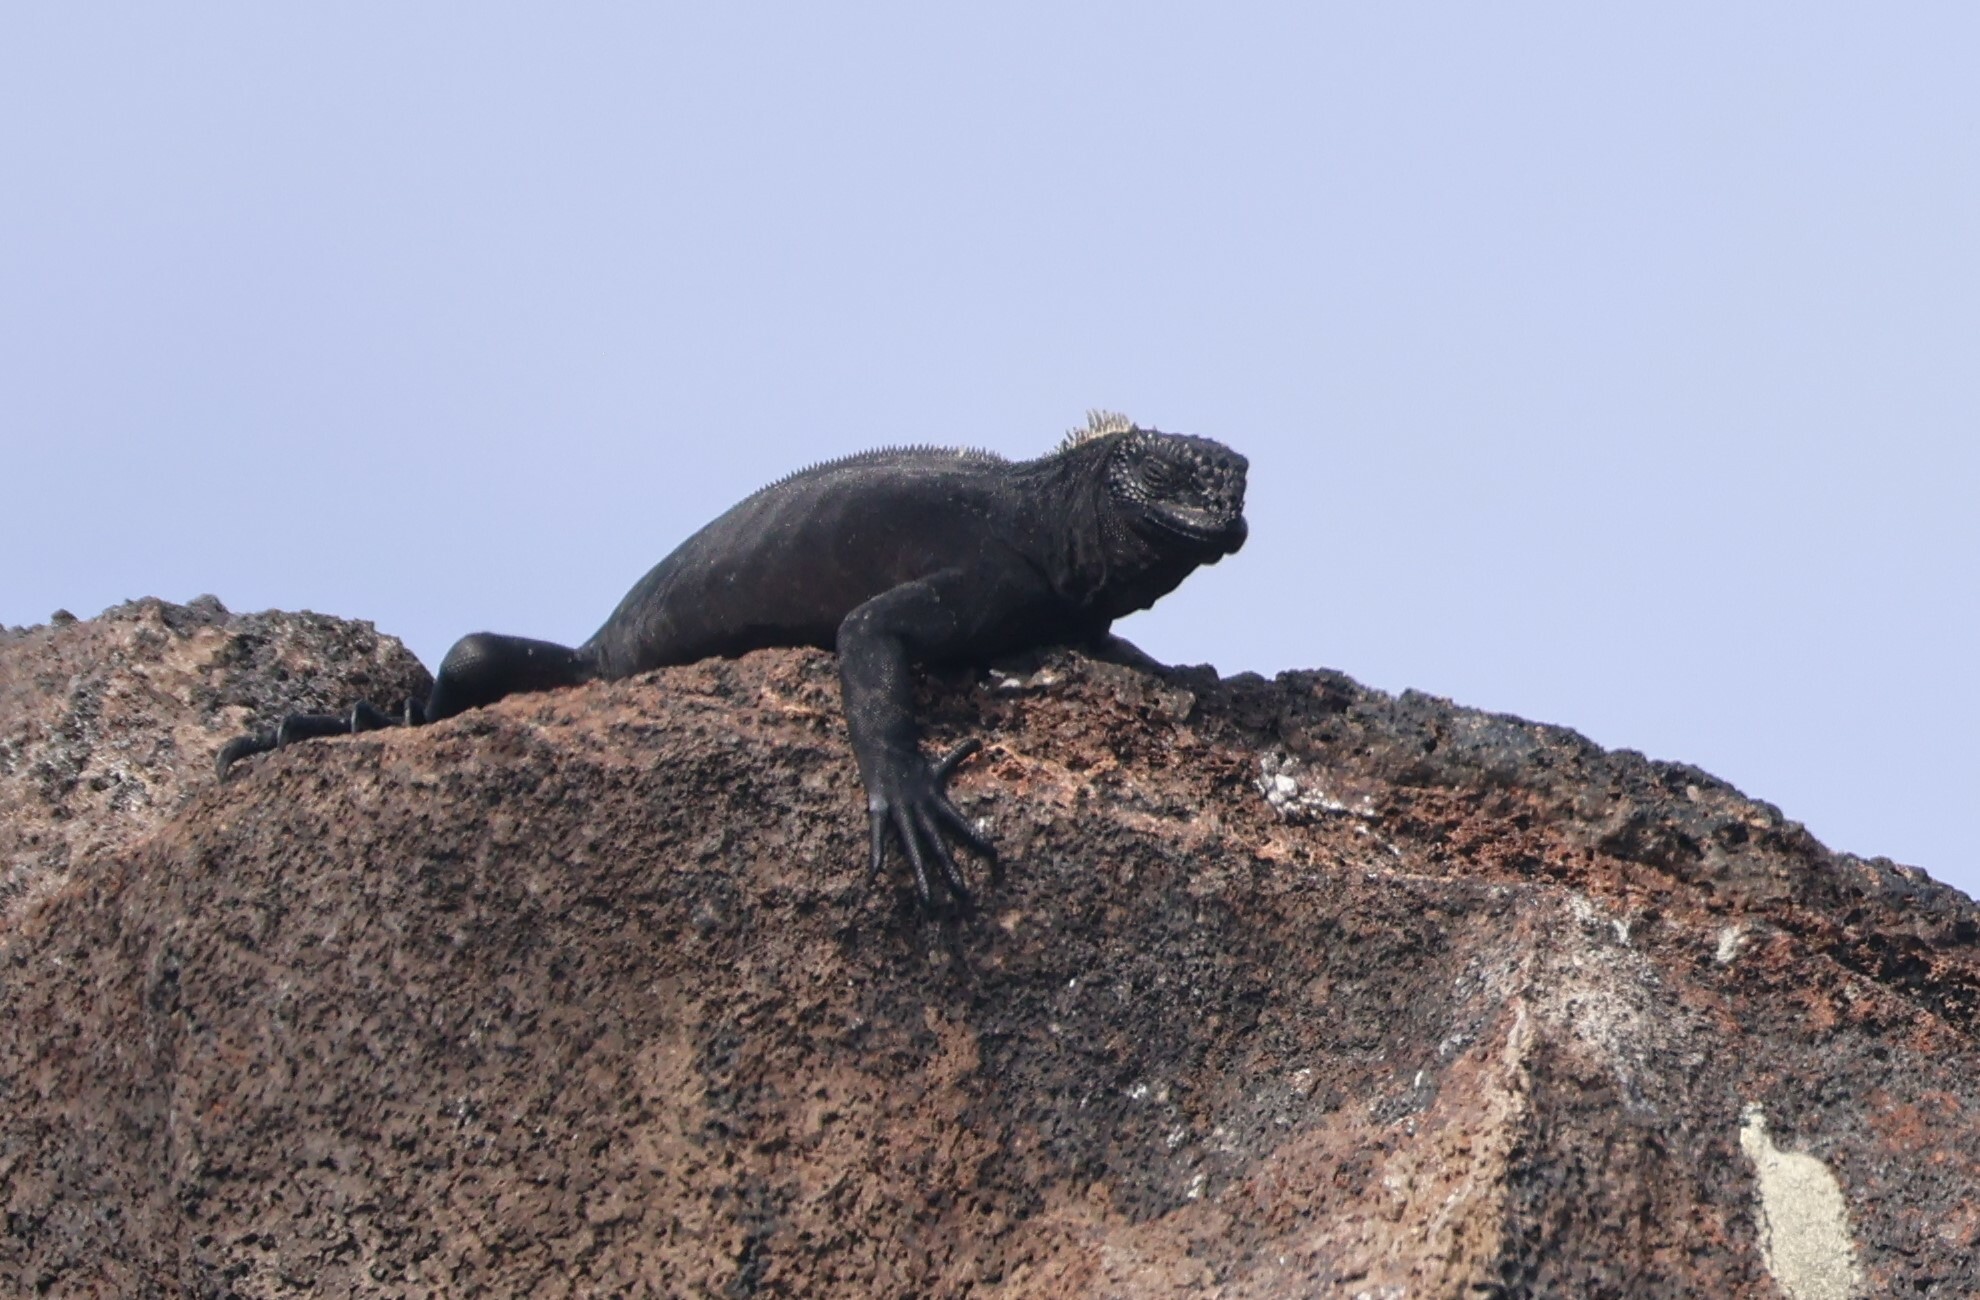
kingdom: Animalia
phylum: Chordata
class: Squamata
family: Iguanidae
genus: Amblyrhynchus
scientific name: Amblyrhynchus cristatus
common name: Marine iguana
